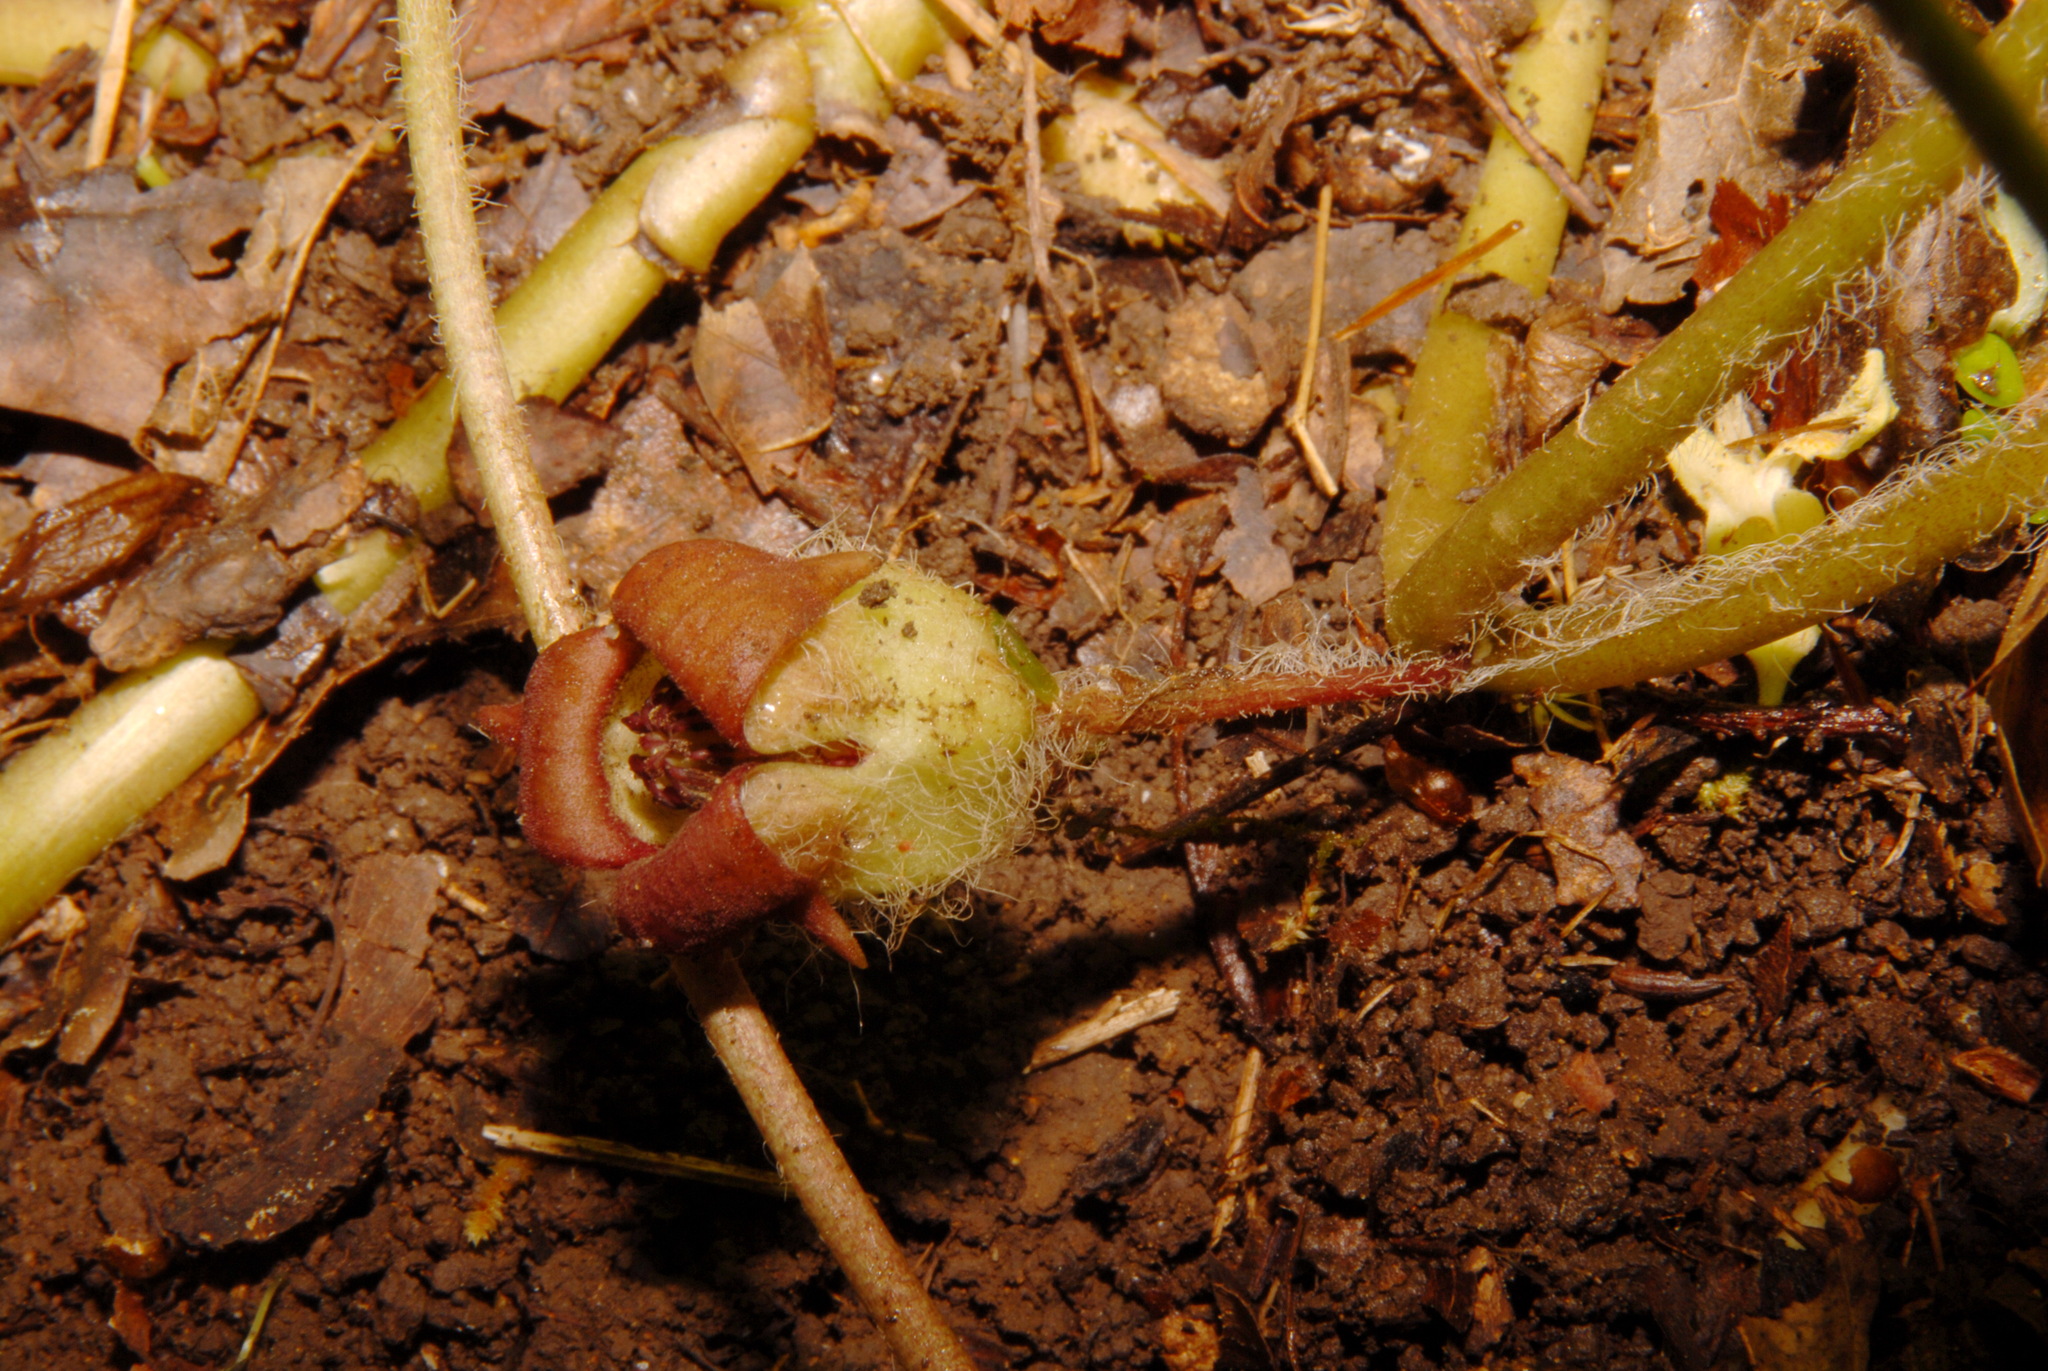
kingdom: Plantae
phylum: Tracheophyta
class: Magnoliopsida
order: Piperales
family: Aristolochiaceae
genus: Asarum
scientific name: Asarum canadense
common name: Wild ginger
